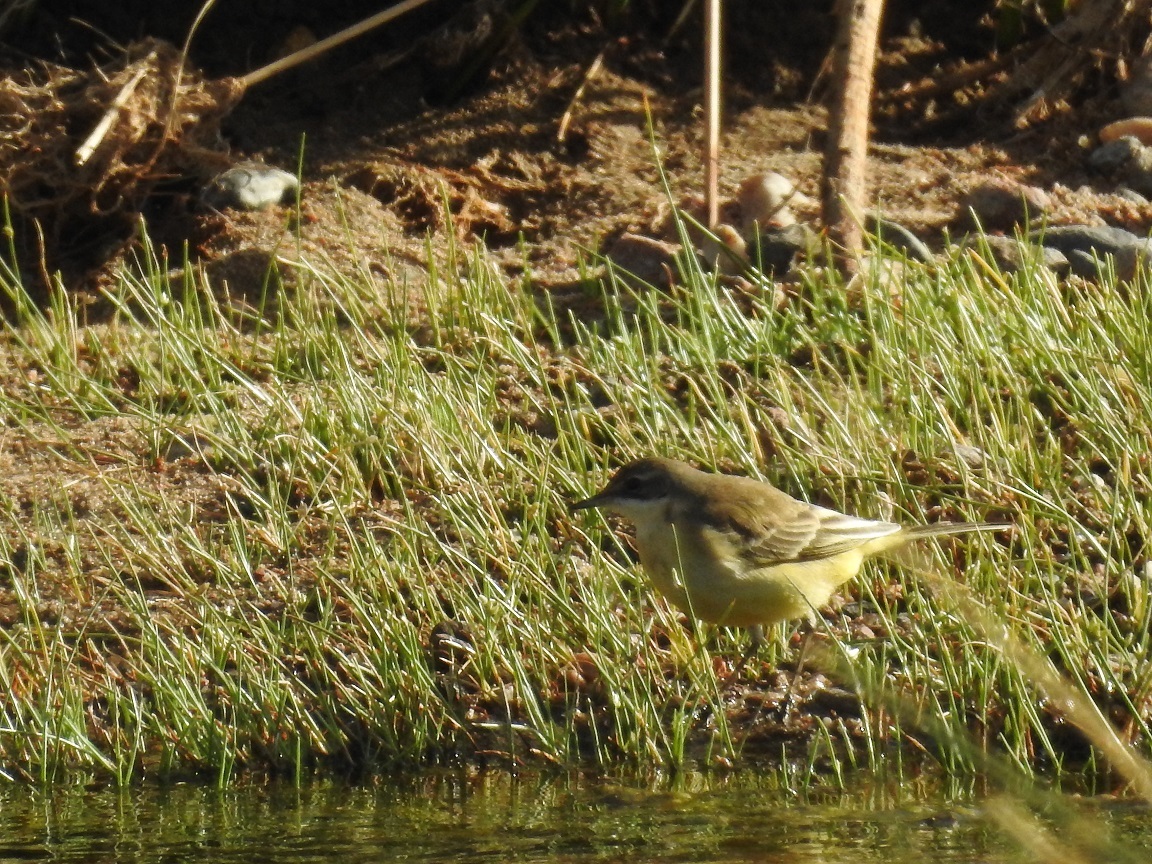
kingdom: Animalia
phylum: Chordata
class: Aves
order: Passeriformes
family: Motacillidae
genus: Motacilla
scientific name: Motacilla flava
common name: Western yellow wagtail
